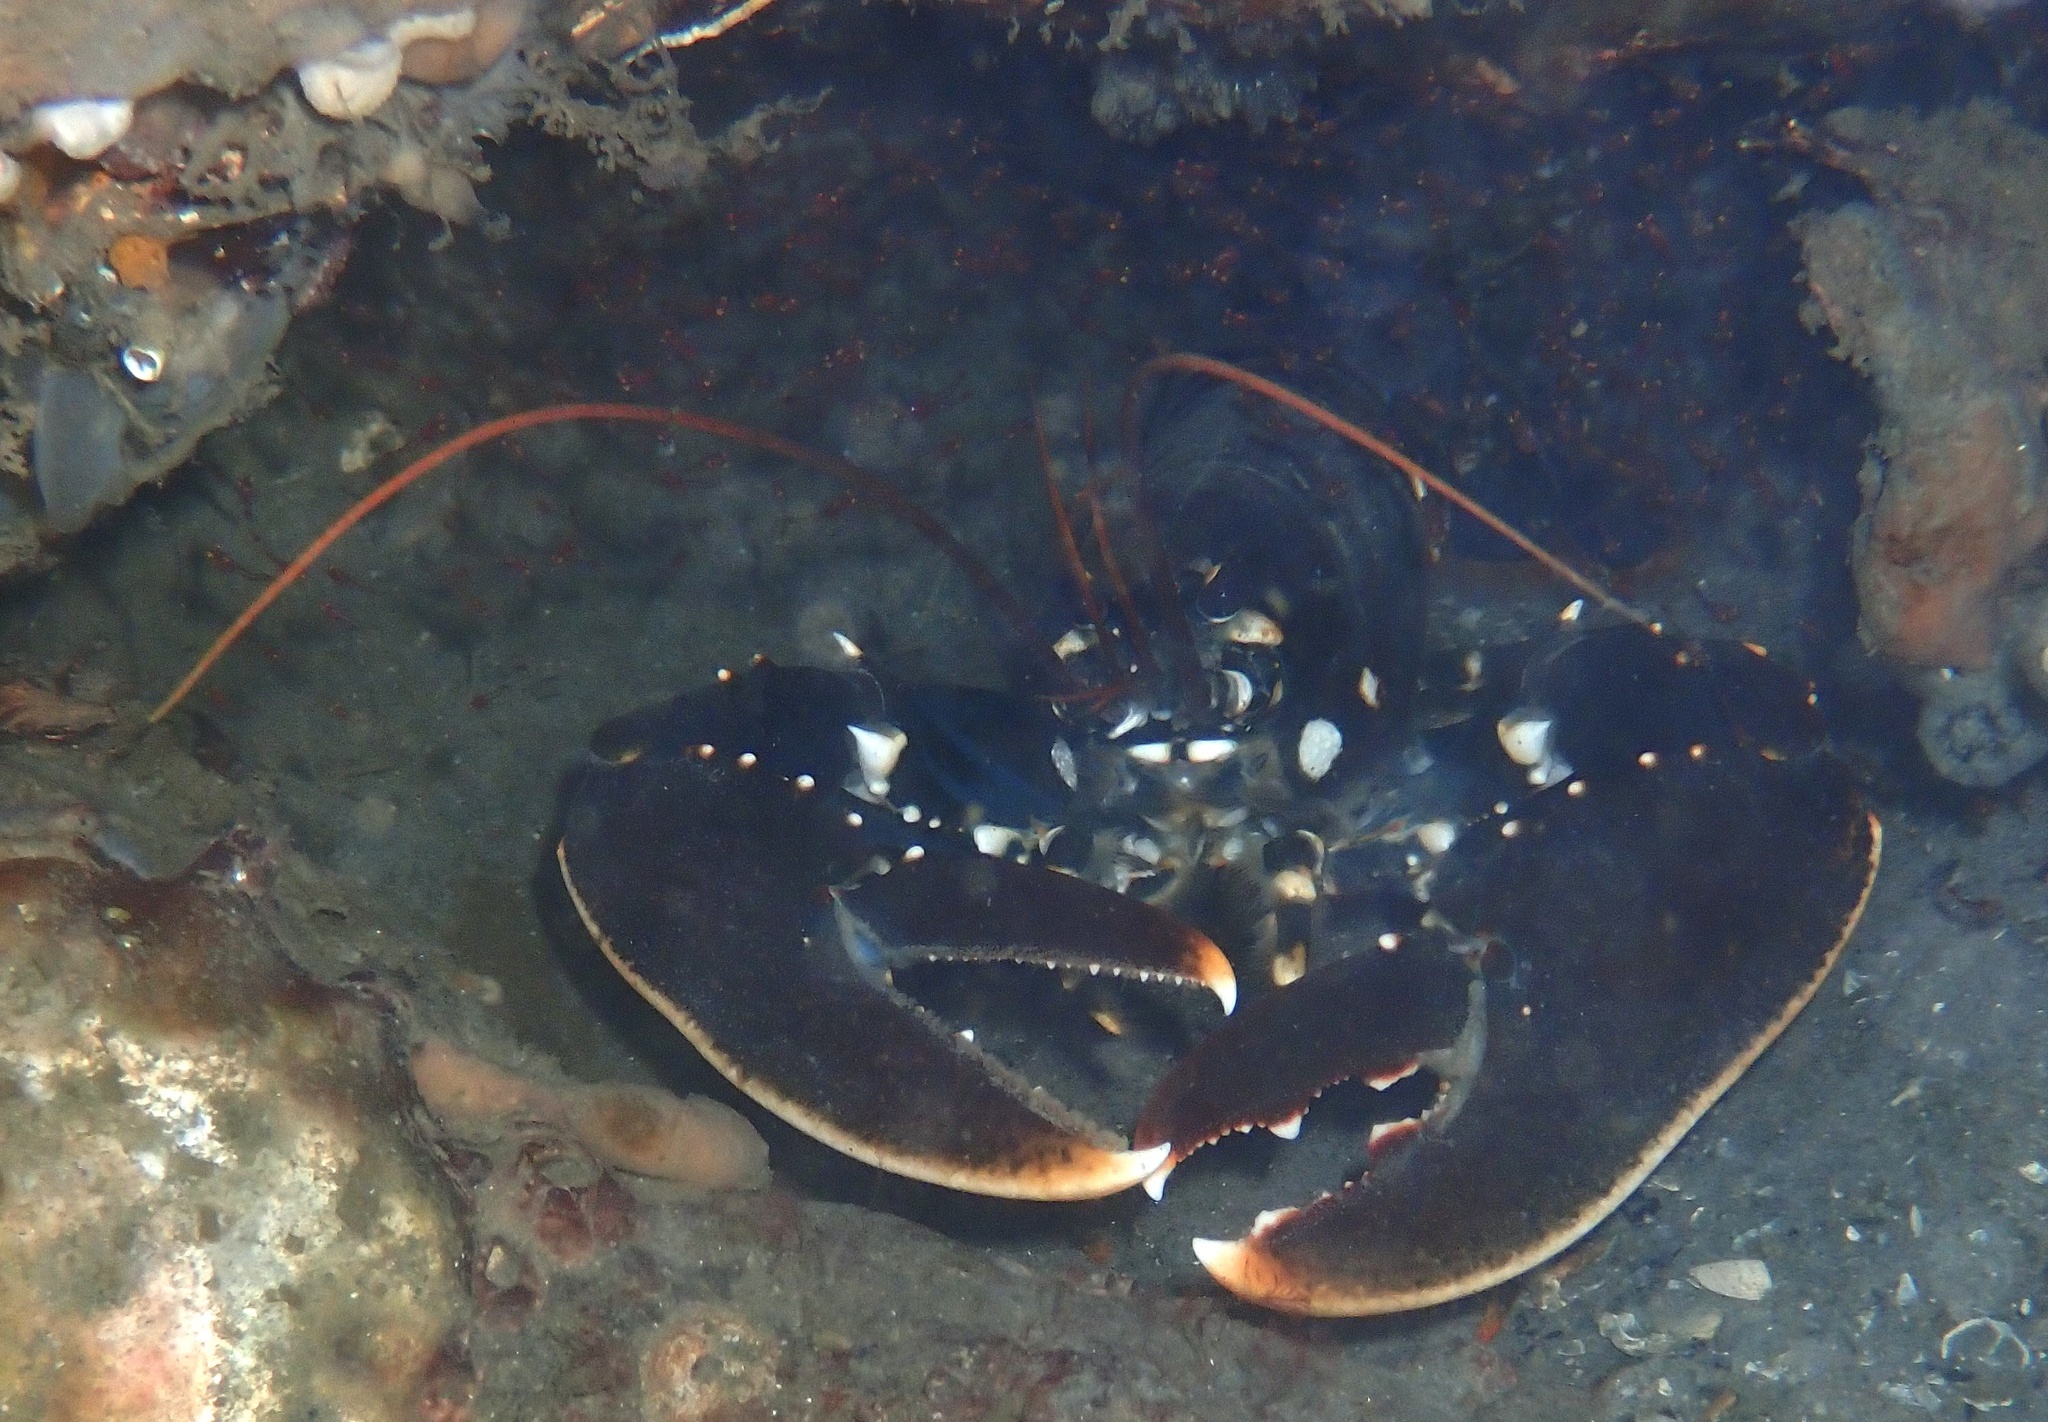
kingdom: Animalia
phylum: Arthropoda
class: Malacostraca
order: Decapoda
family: Nephropidae
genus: Homarus
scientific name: Homarus gammarus
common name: European lobster
